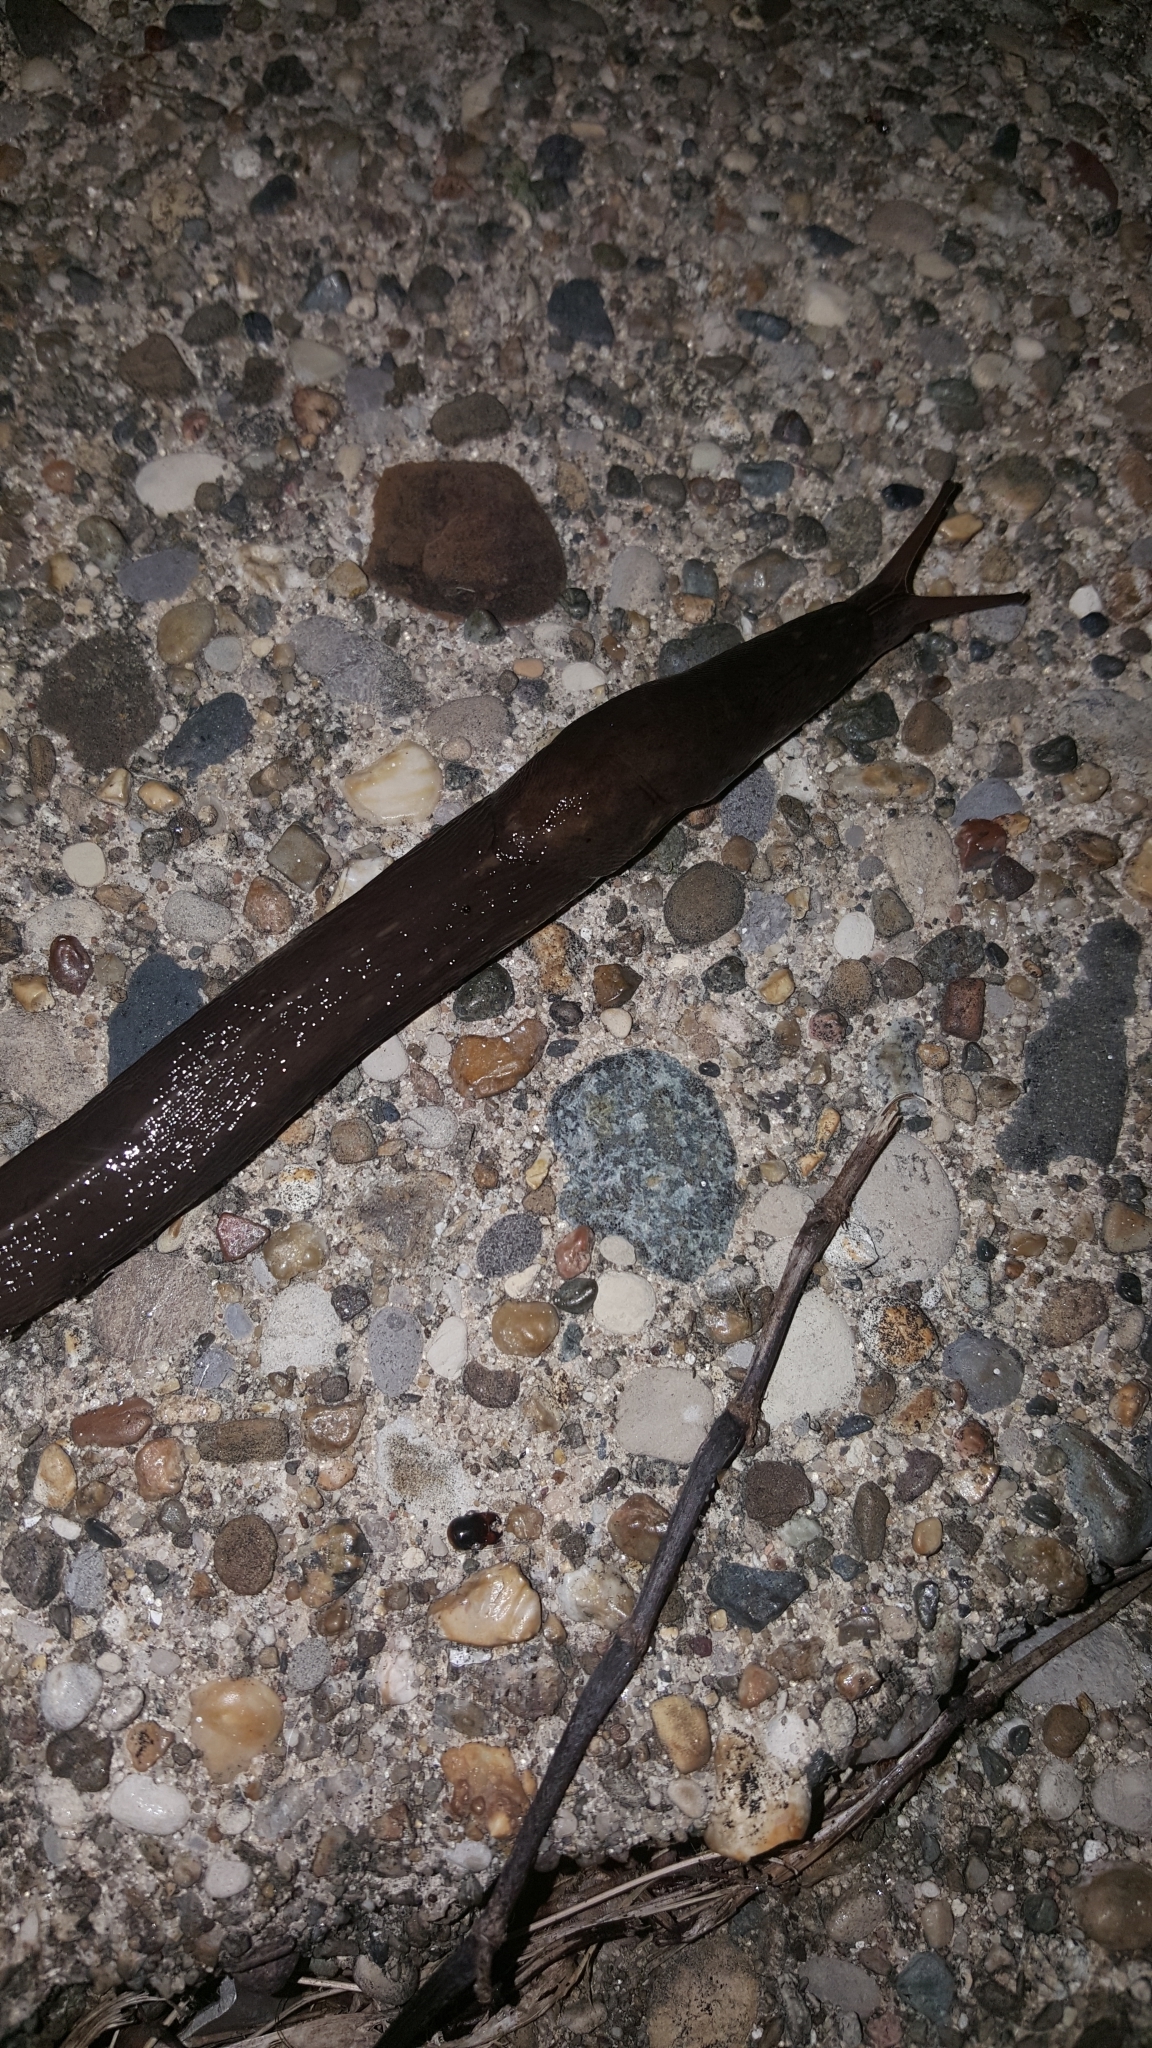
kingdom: Animalia
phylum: Mollusca
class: Gastropoda
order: Stylommatophora
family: Limacidae
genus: Limax
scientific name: Limax maximus
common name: Great grey slug
